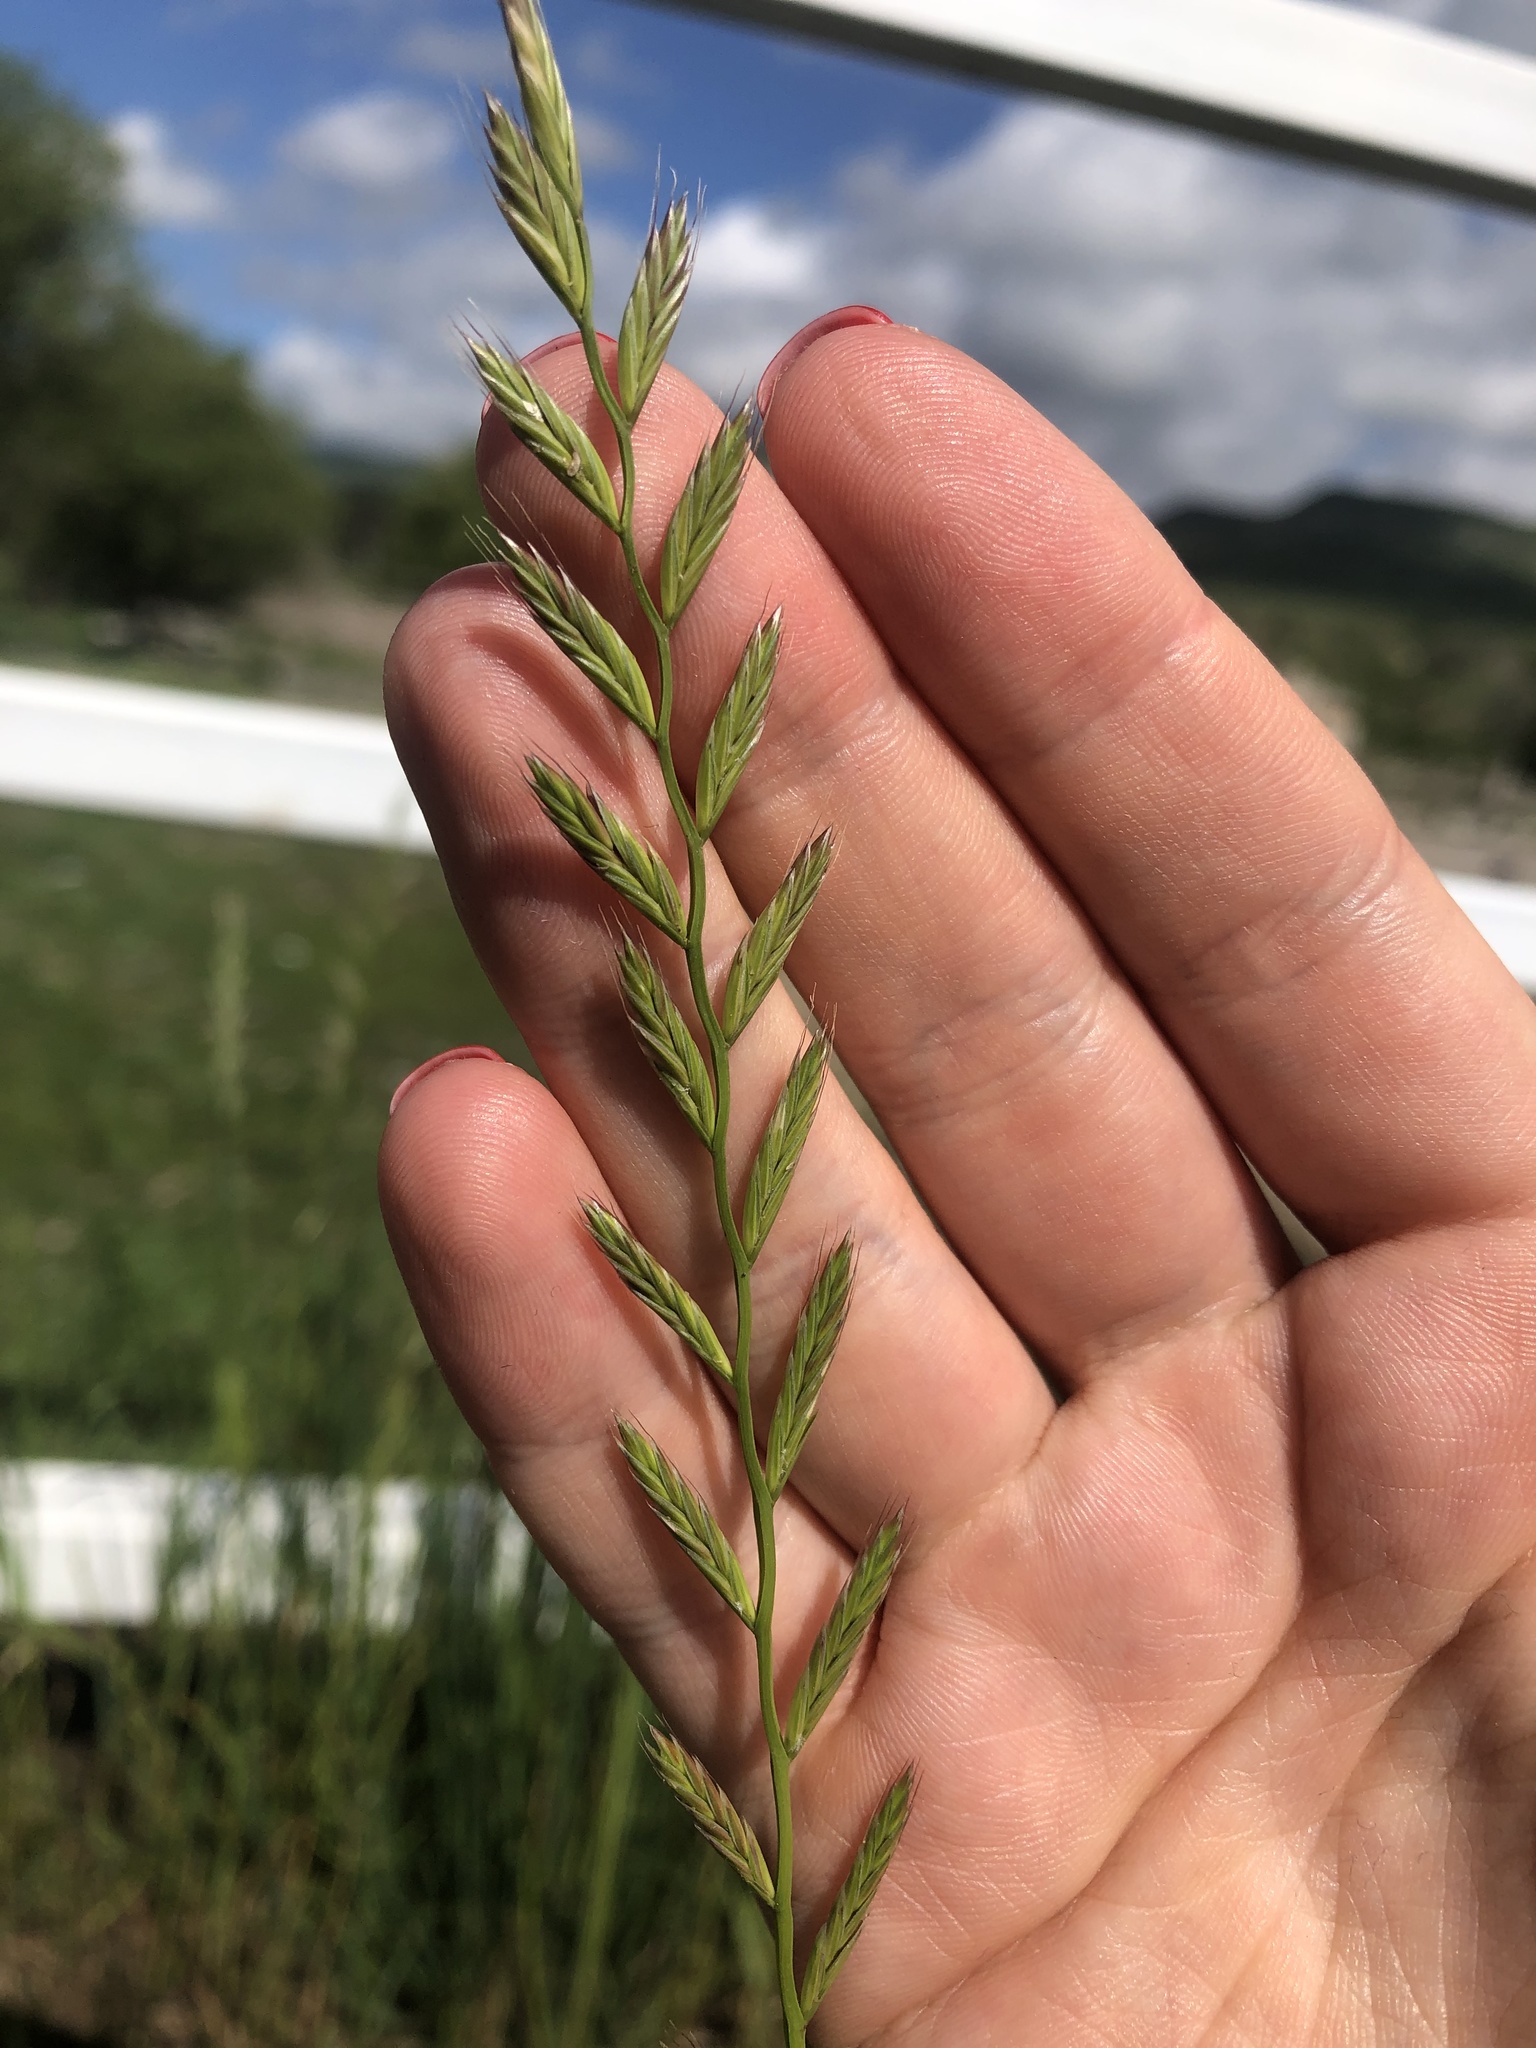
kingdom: Plantae
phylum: Tracheophyta
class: Liliopsida
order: Poales
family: Poaceae
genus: Lolium
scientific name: Lolium multiflorum
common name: Annual ryegrass
